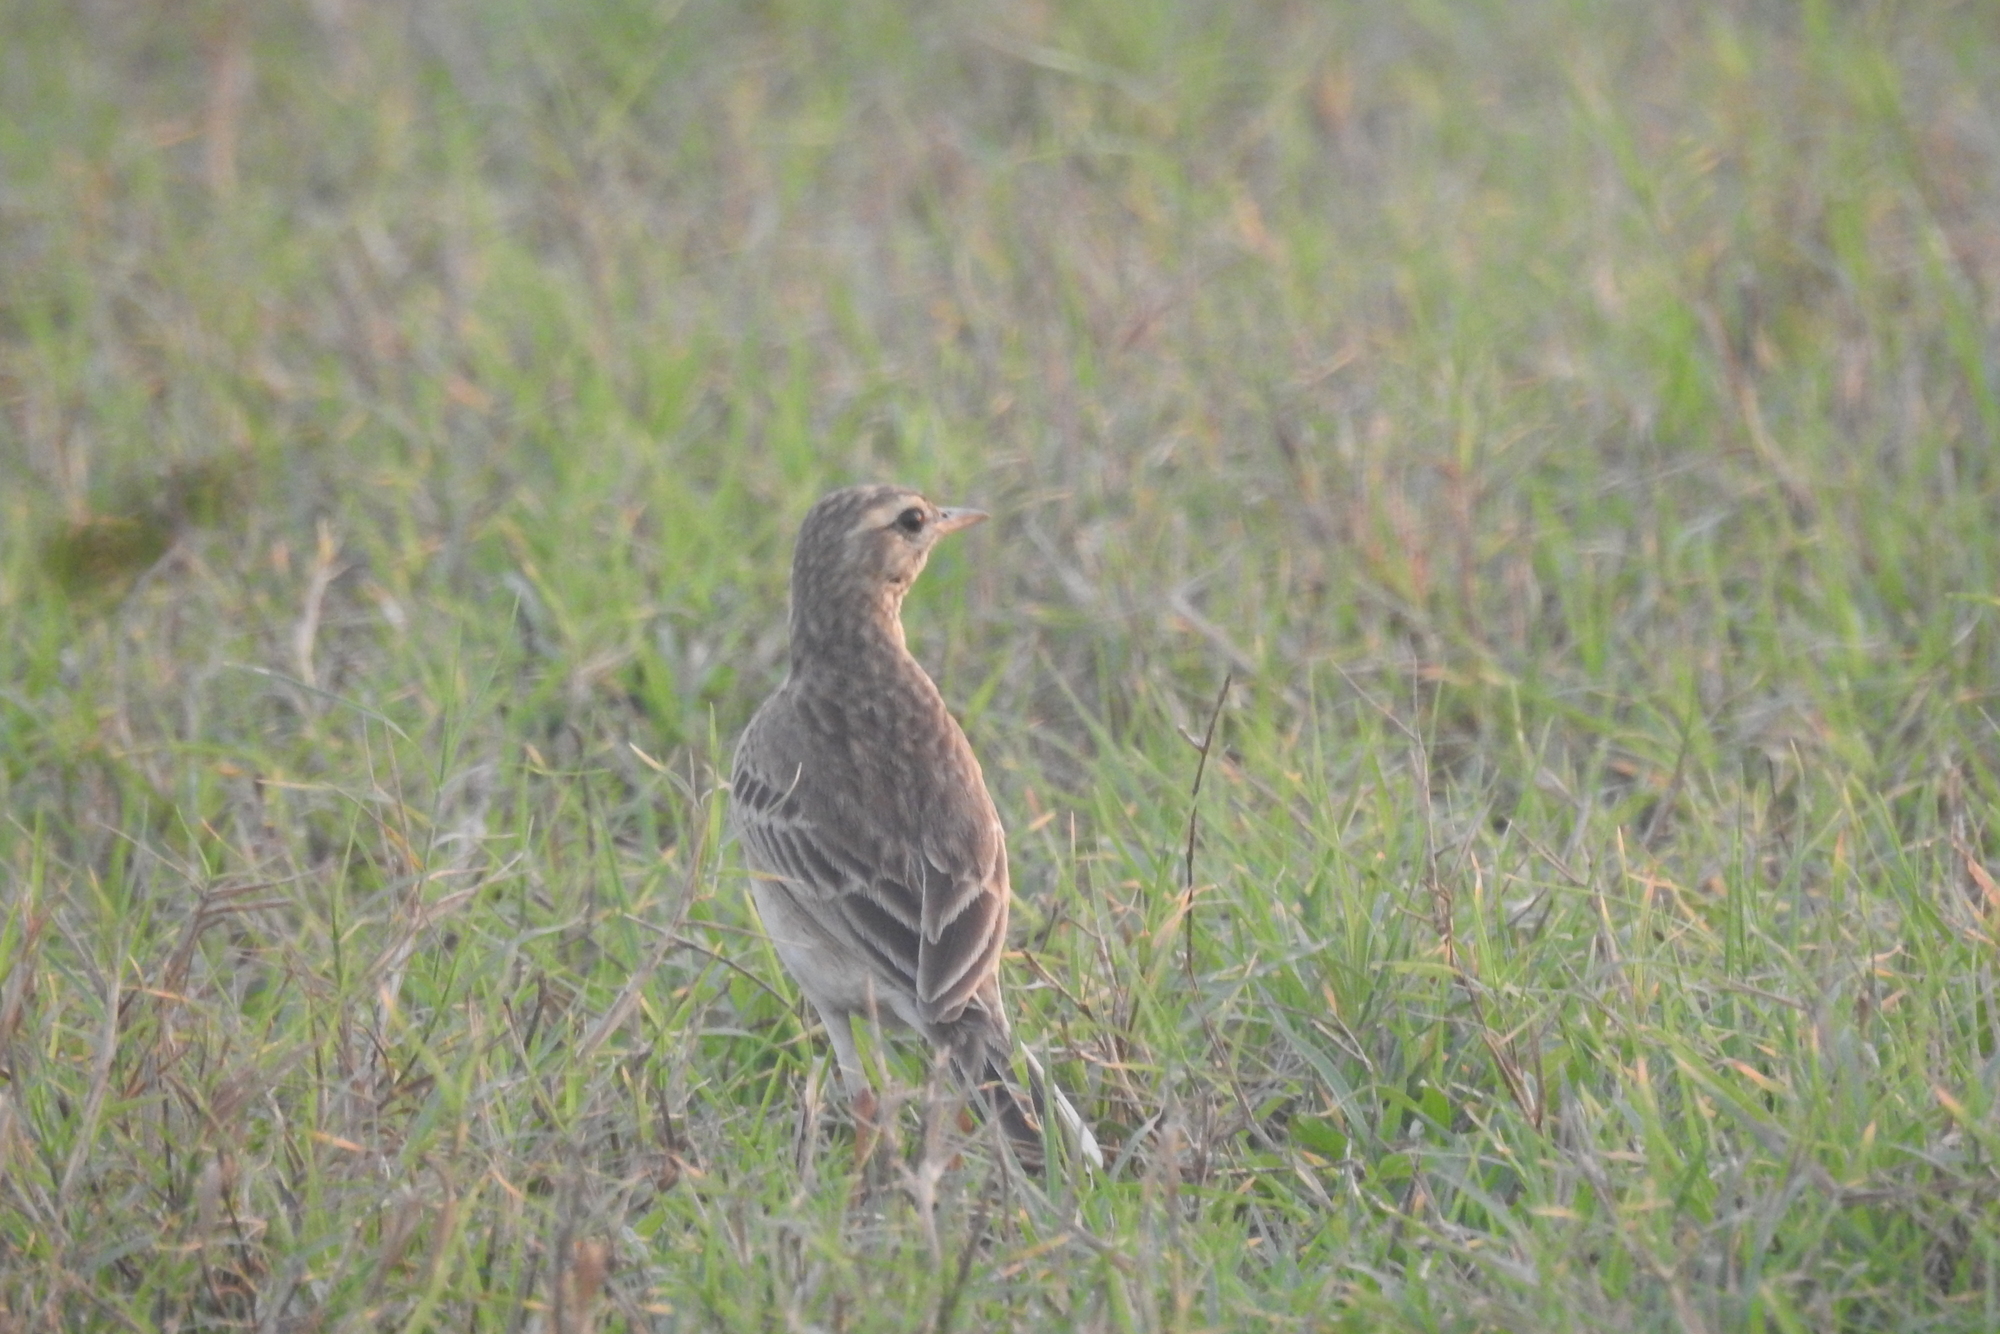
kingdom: Animalia
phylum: Chordata
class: Aves
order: Passeriformes
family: Motacillidae
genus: Anthus
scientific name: Anthus rufulus
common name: Paddyfield pipit
